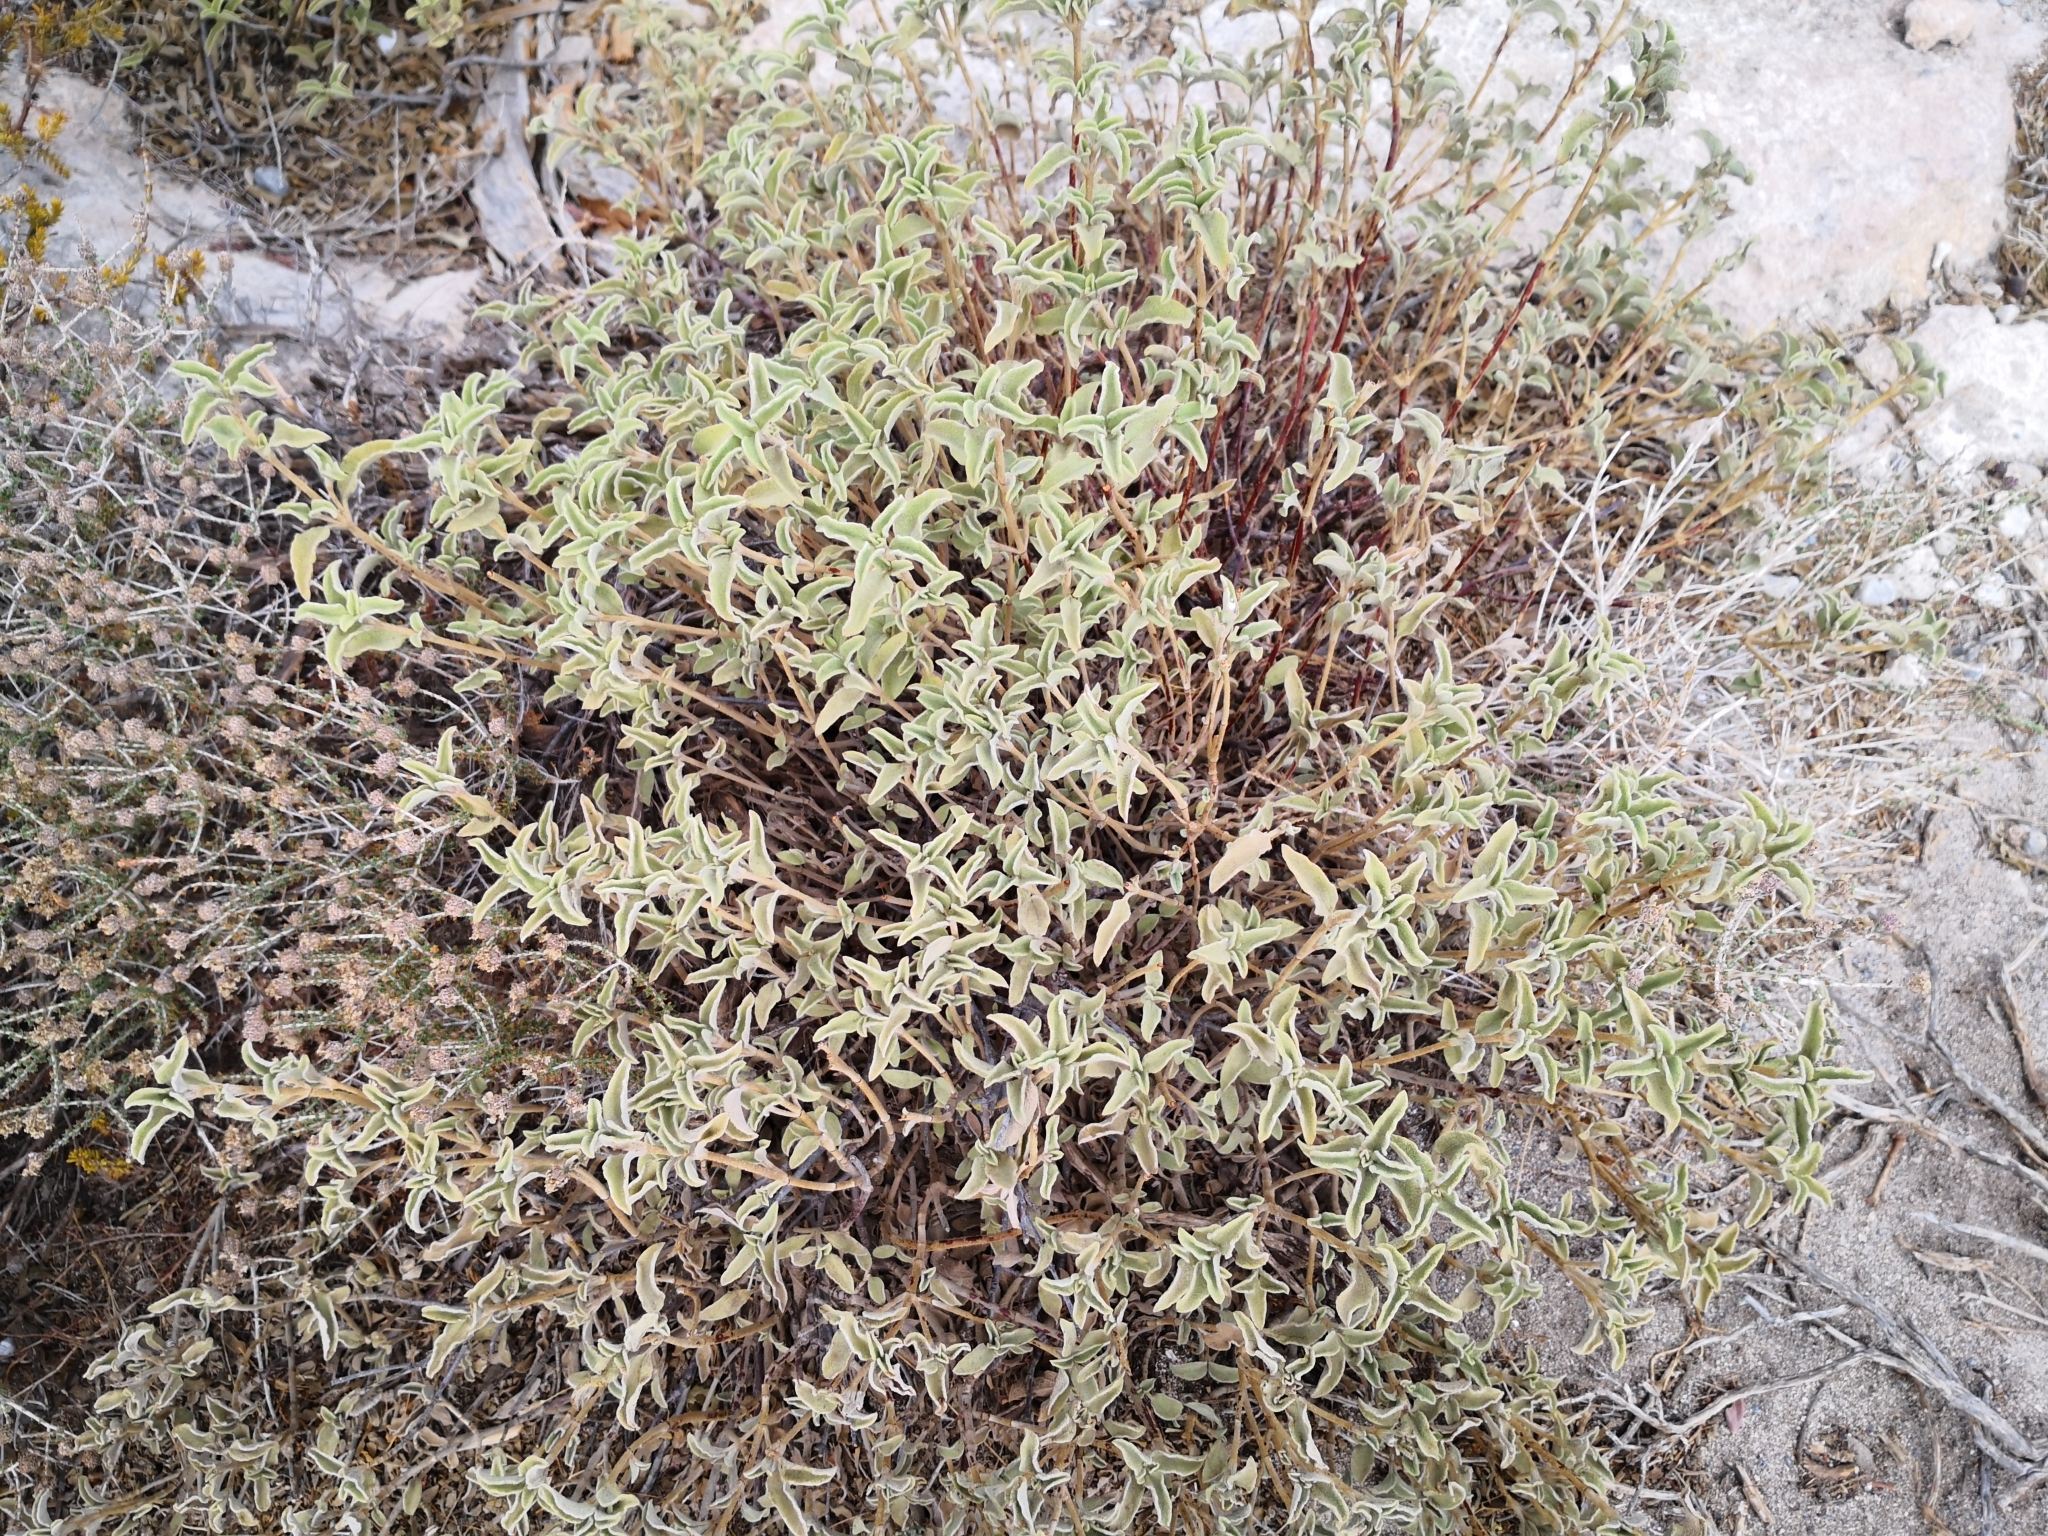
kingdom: Plantae
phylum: Tracheophyta
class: Magnoliopsida
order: Malvales
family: Cistaceae
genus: Cistus
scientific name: Cistus parviflorus
